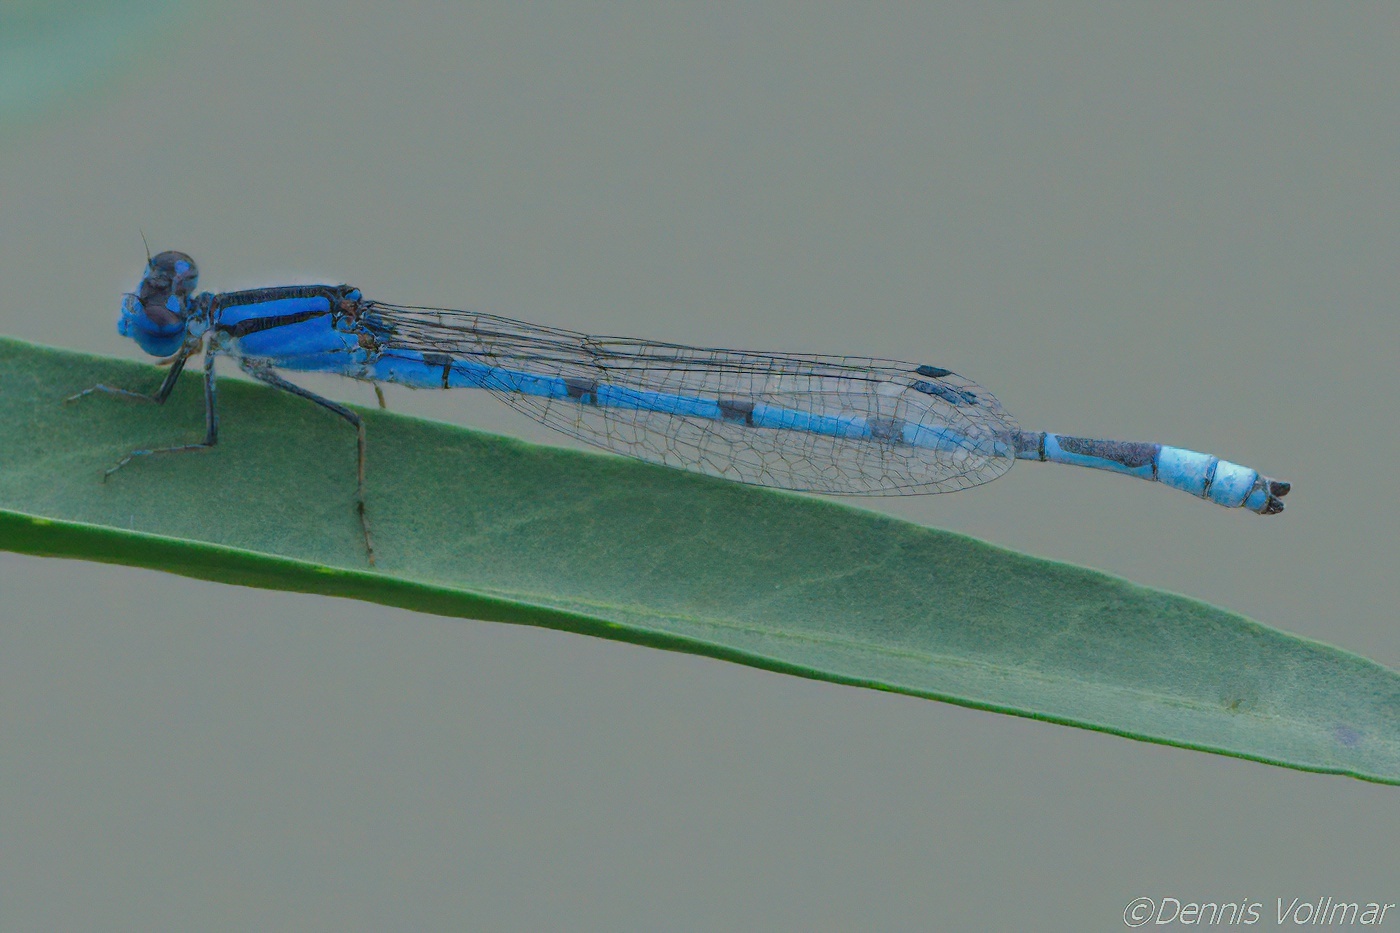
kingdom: Animalia
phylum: Arthropoda
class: Insecta
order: Odonata
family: Coenagrionidae
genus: Enallagma
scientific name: Enallagma civile
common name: Damselfly
